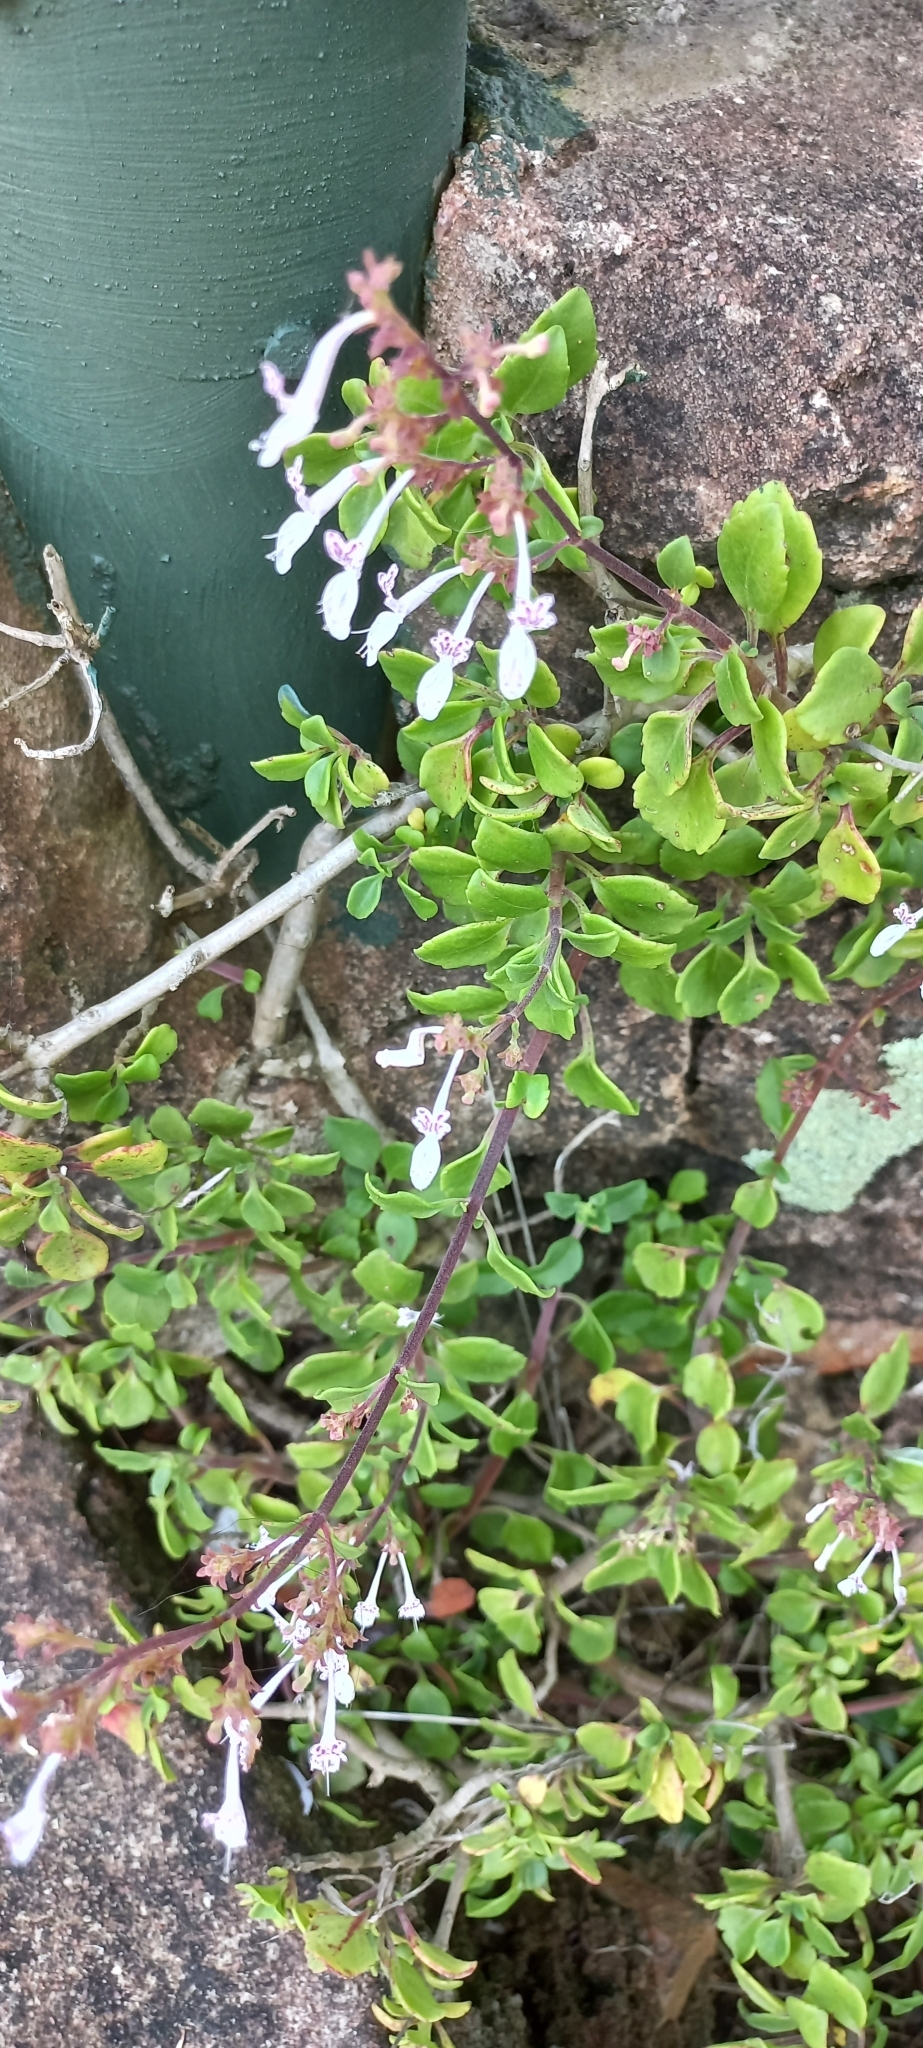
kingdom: Plantae
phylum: Tracheophyta
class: Magnoliopsida
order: Lamiales
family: Lamiaceae
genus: Aeollanthus
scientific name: Aeollanthus parvifolius
